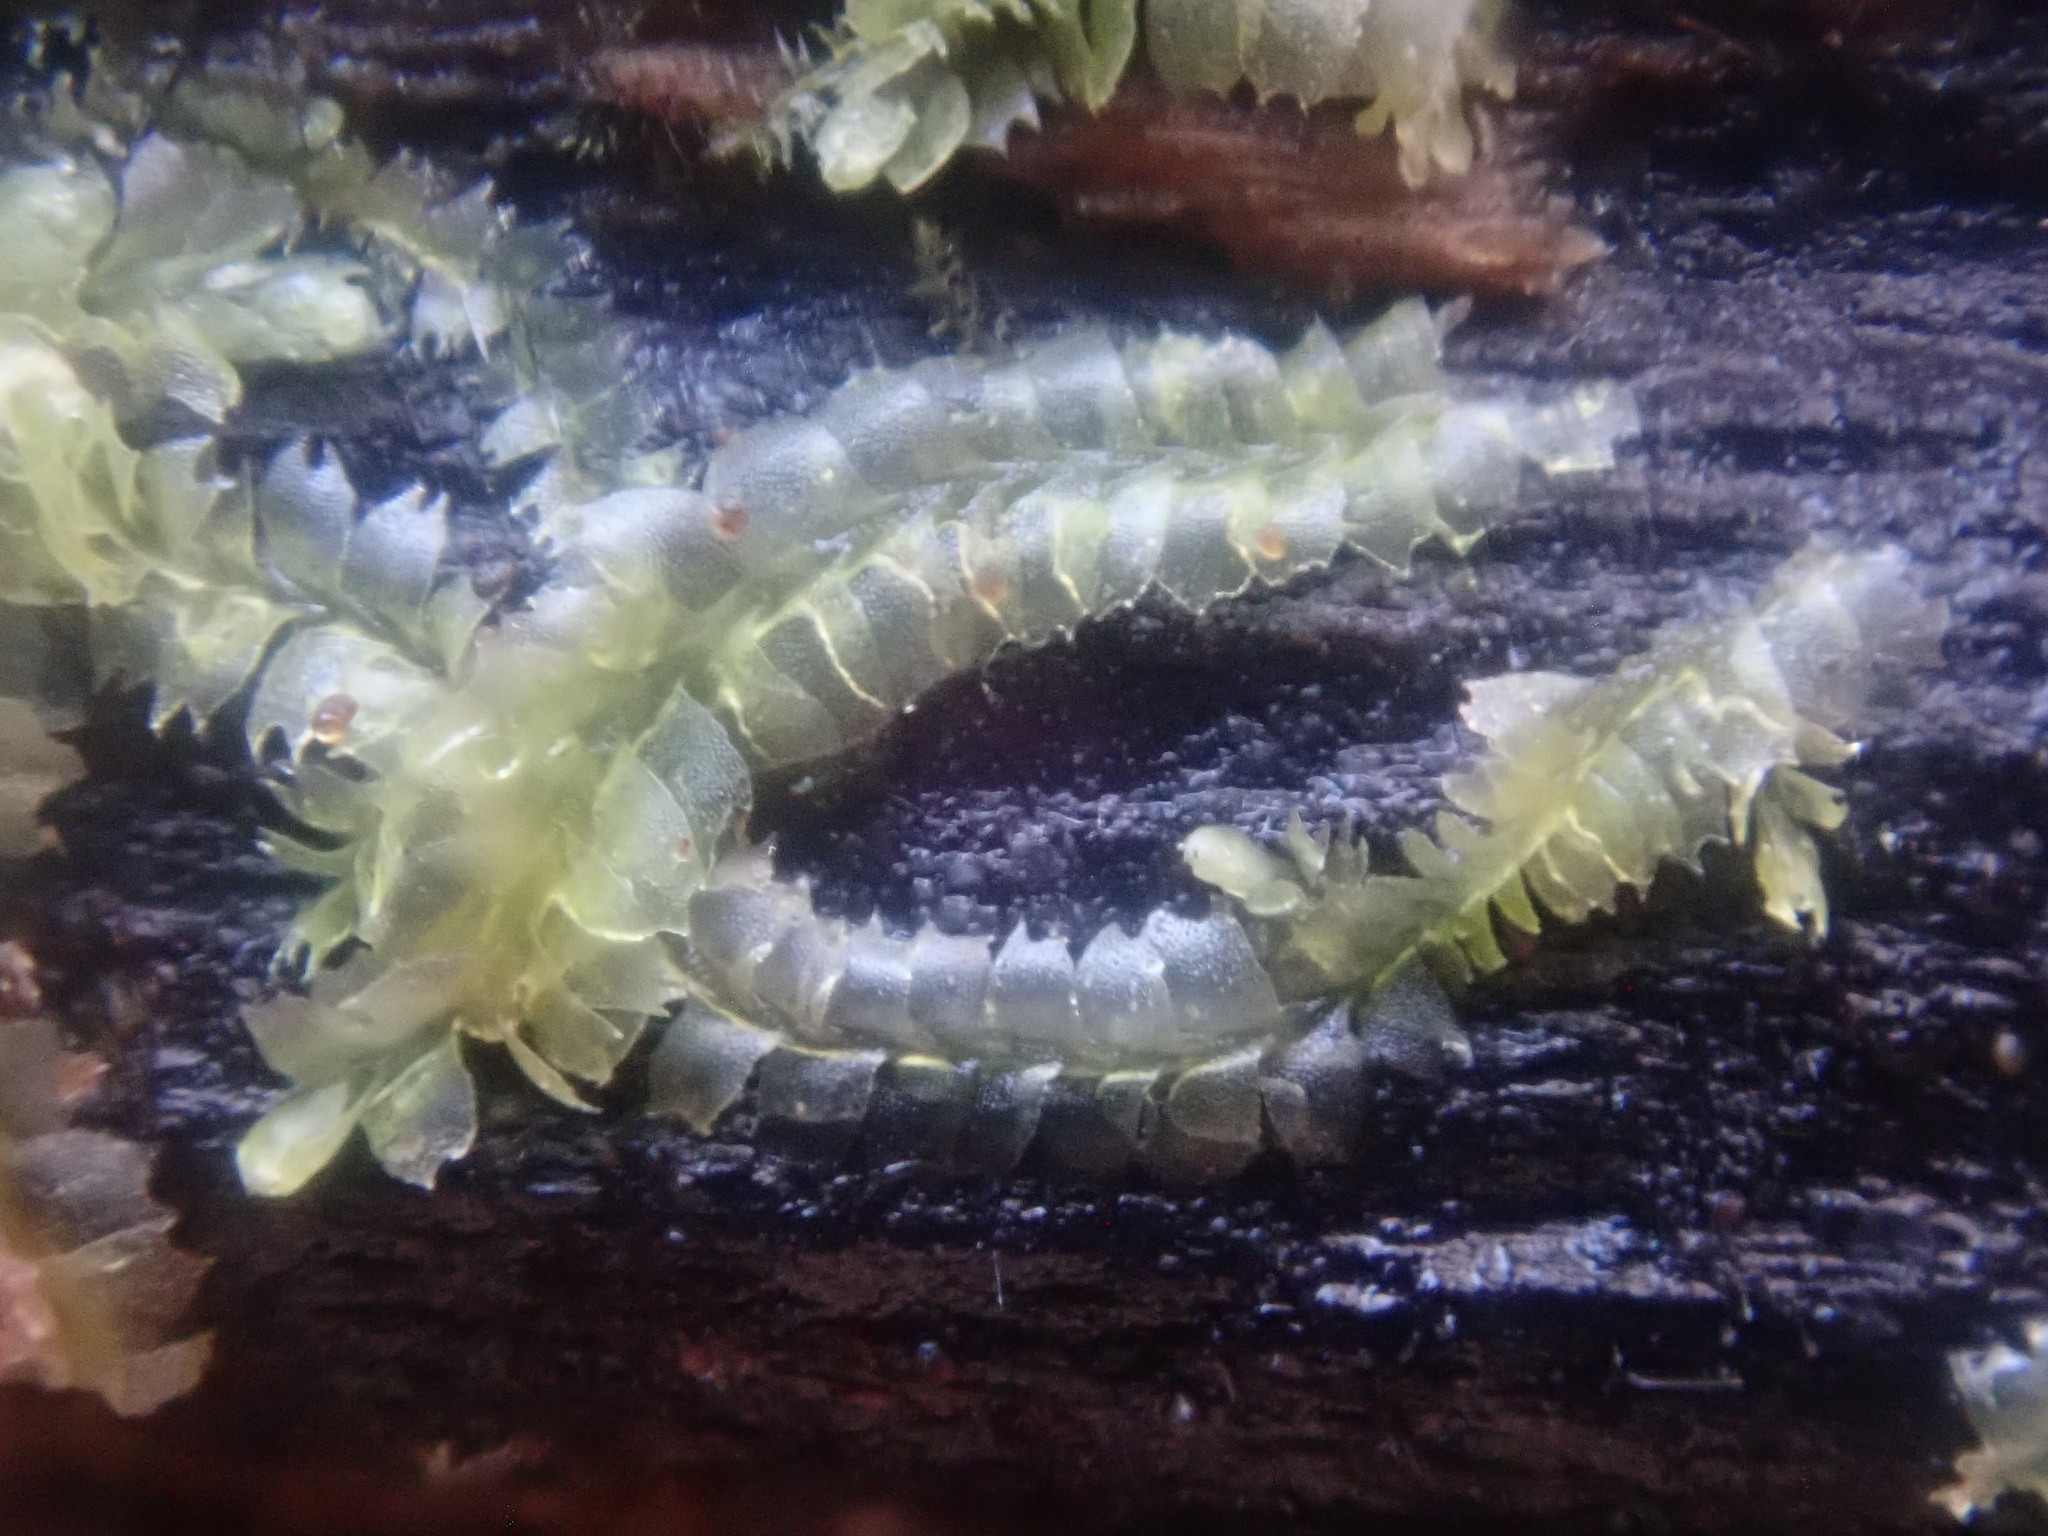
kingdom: Plantae
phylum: Marchantiophyta
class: Jungermanniopsida
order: Jungermanniales
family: Lophocoleaceae
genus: Lophocolea
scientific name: Lophocolea heterophylla
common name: Variable-leaved crestwort
